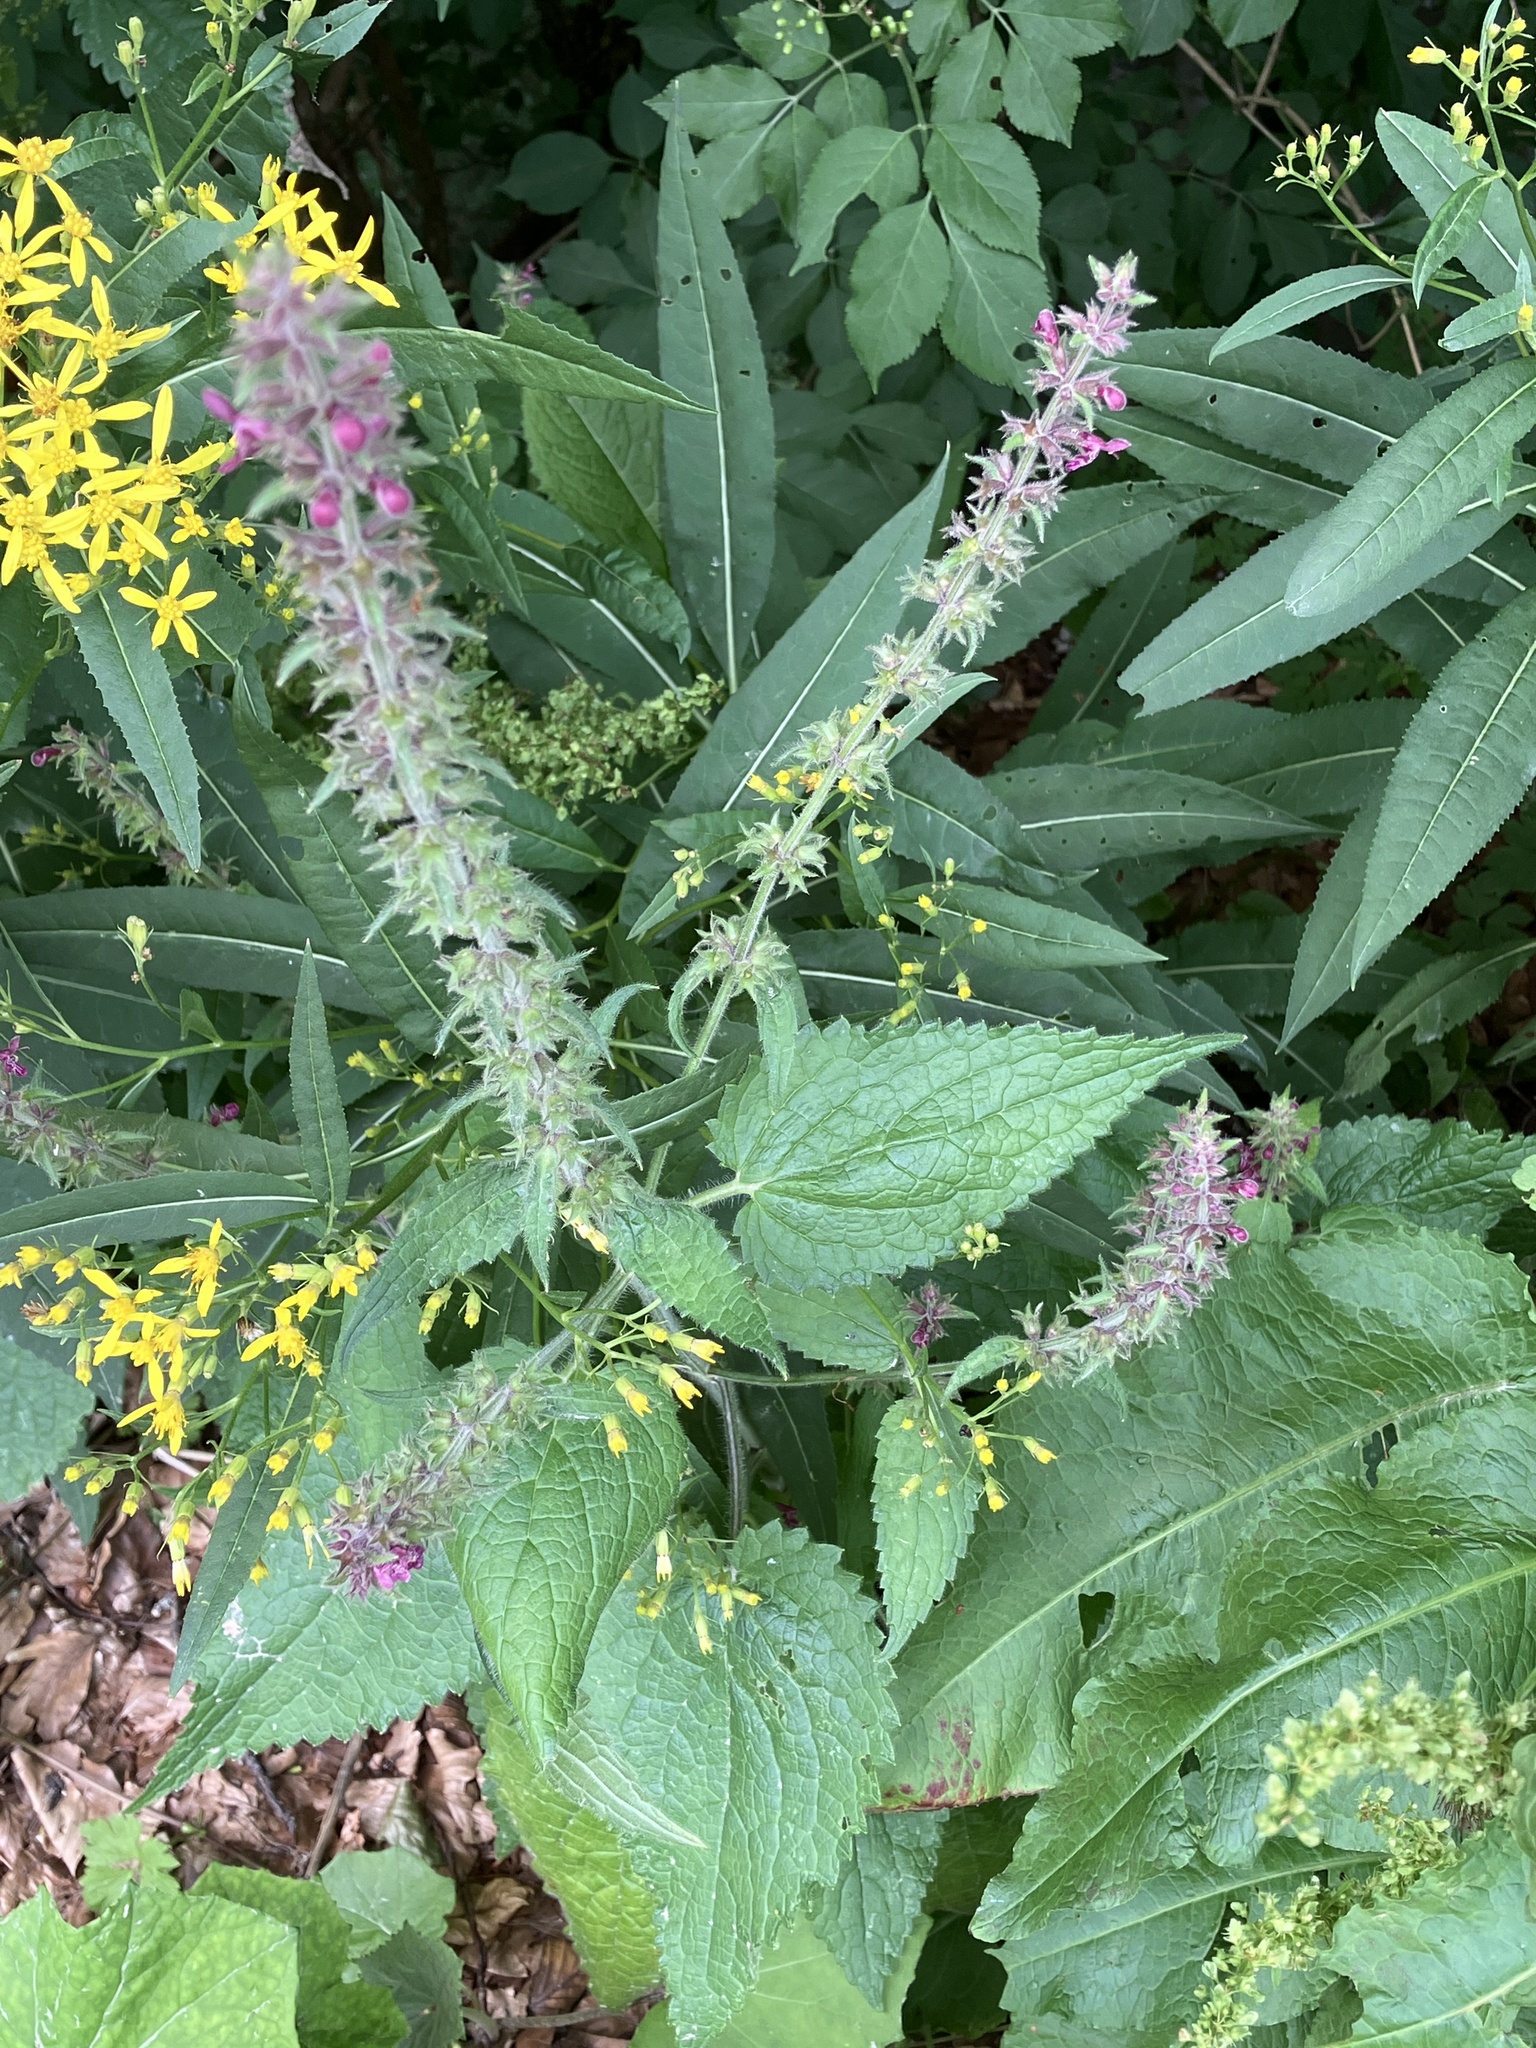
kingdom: Plantae
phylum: Tracheophyta
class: Magnoliopsida
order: Lamiales
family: Lamiaceae
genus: Stachys
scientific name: Stachys sylvatica
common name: Hedge woundwort
